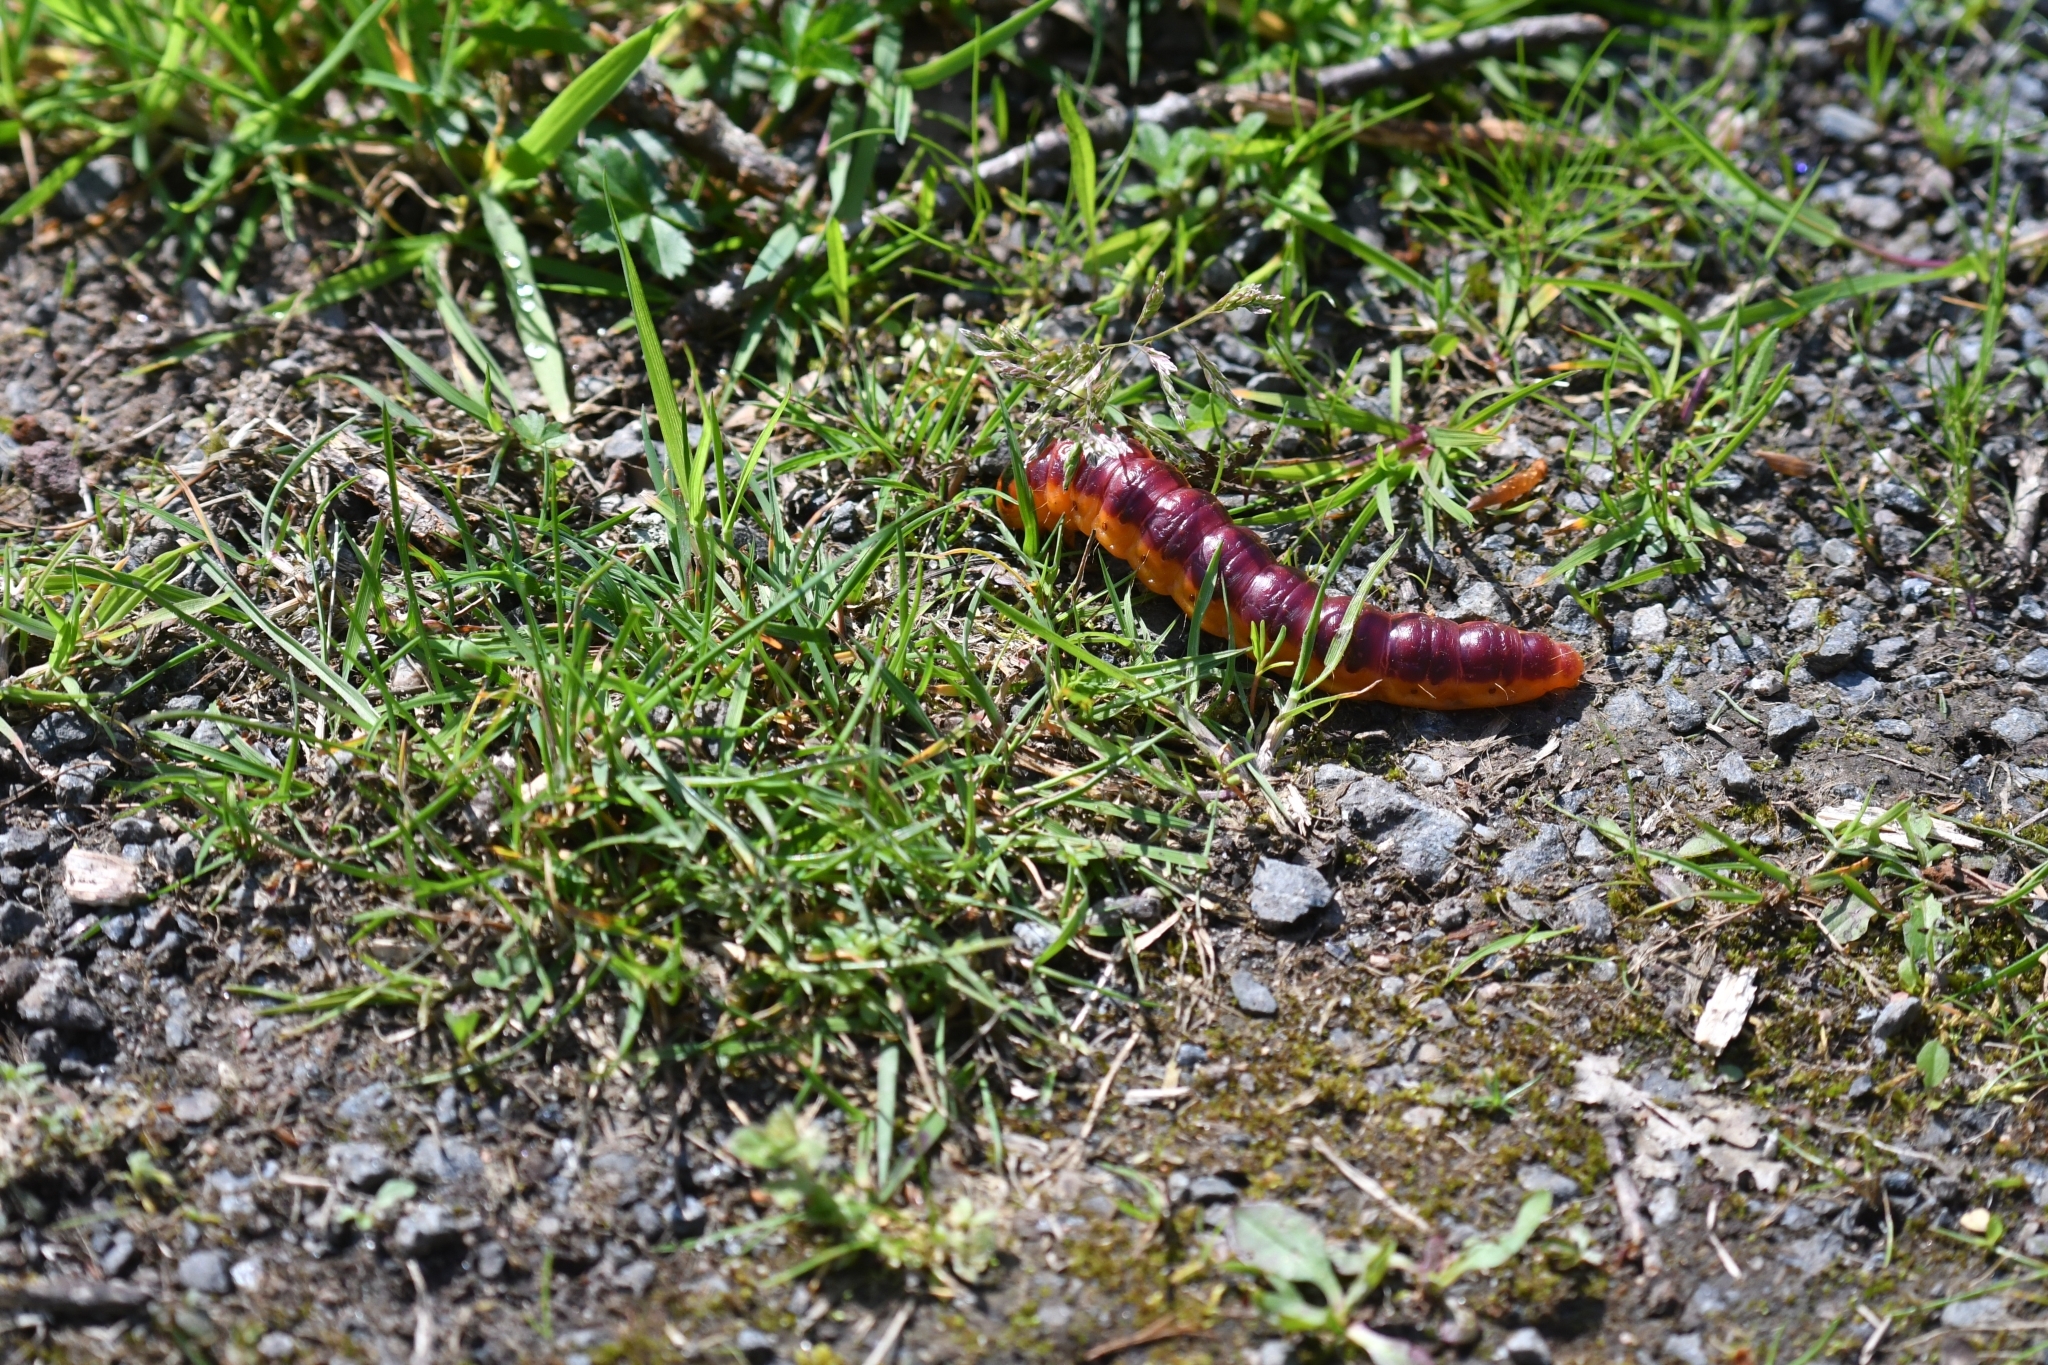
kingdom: Animalia
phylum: Arthropoda
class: Insecta
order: Lepidoptera
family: Cossidae
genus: Cossus
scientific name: Cossus cossus
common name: Goat moth
